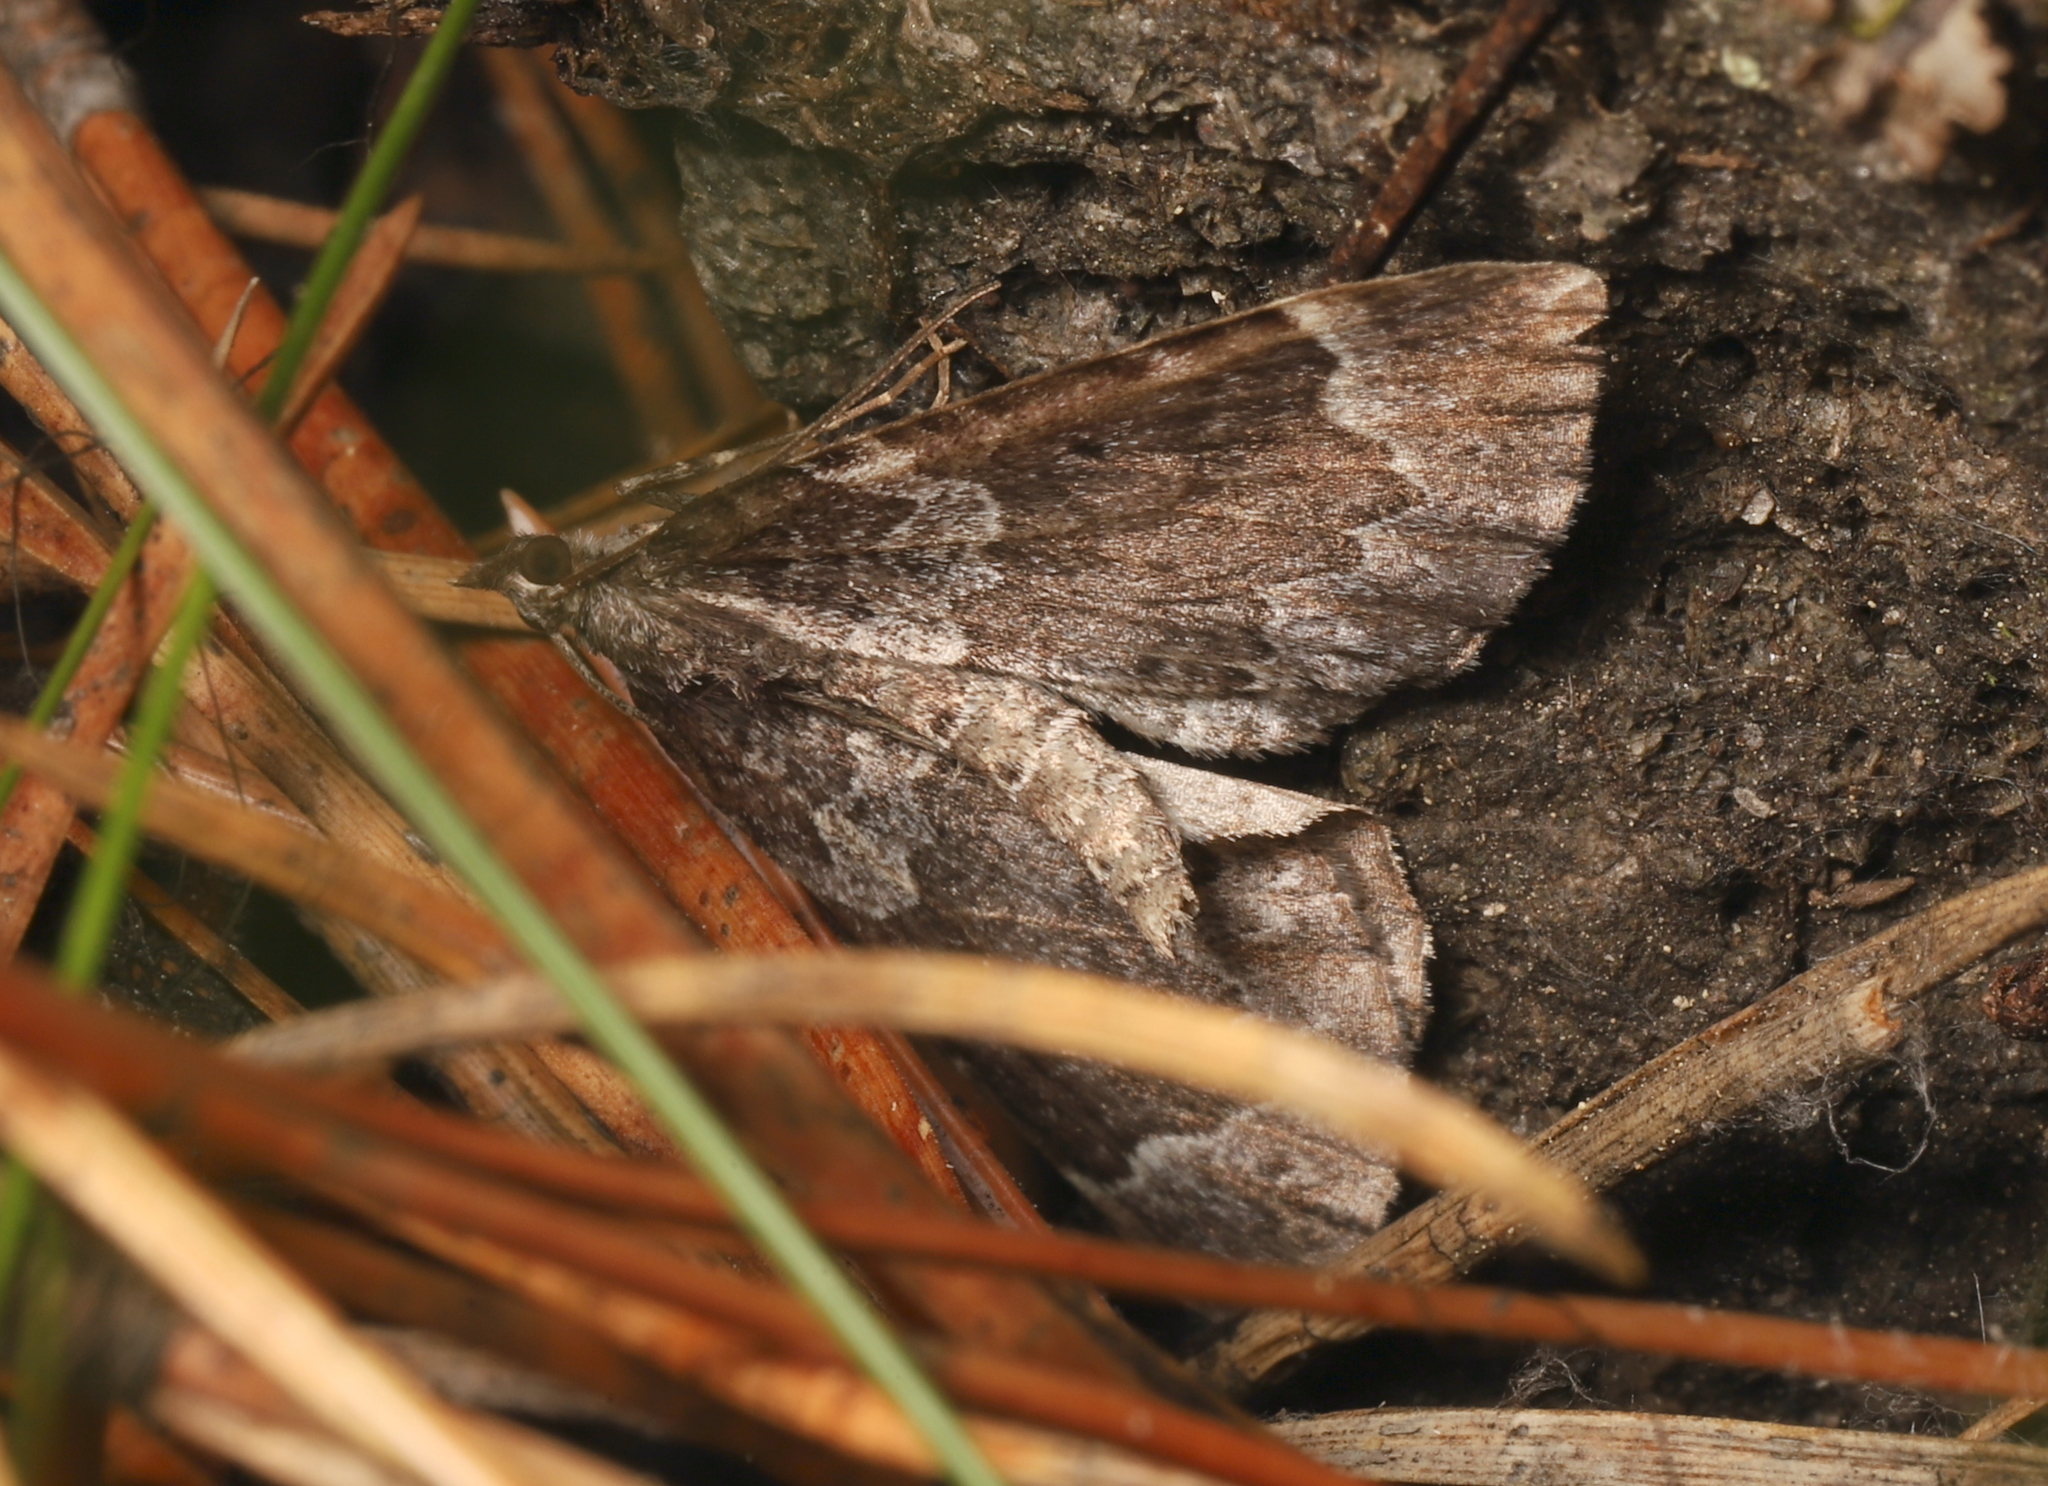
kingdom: Animalia
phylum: Arthropoda
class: Insecta
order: Lepidoptera
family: Geometridae
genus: Eustroma
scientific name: Eustroma semiatrata
